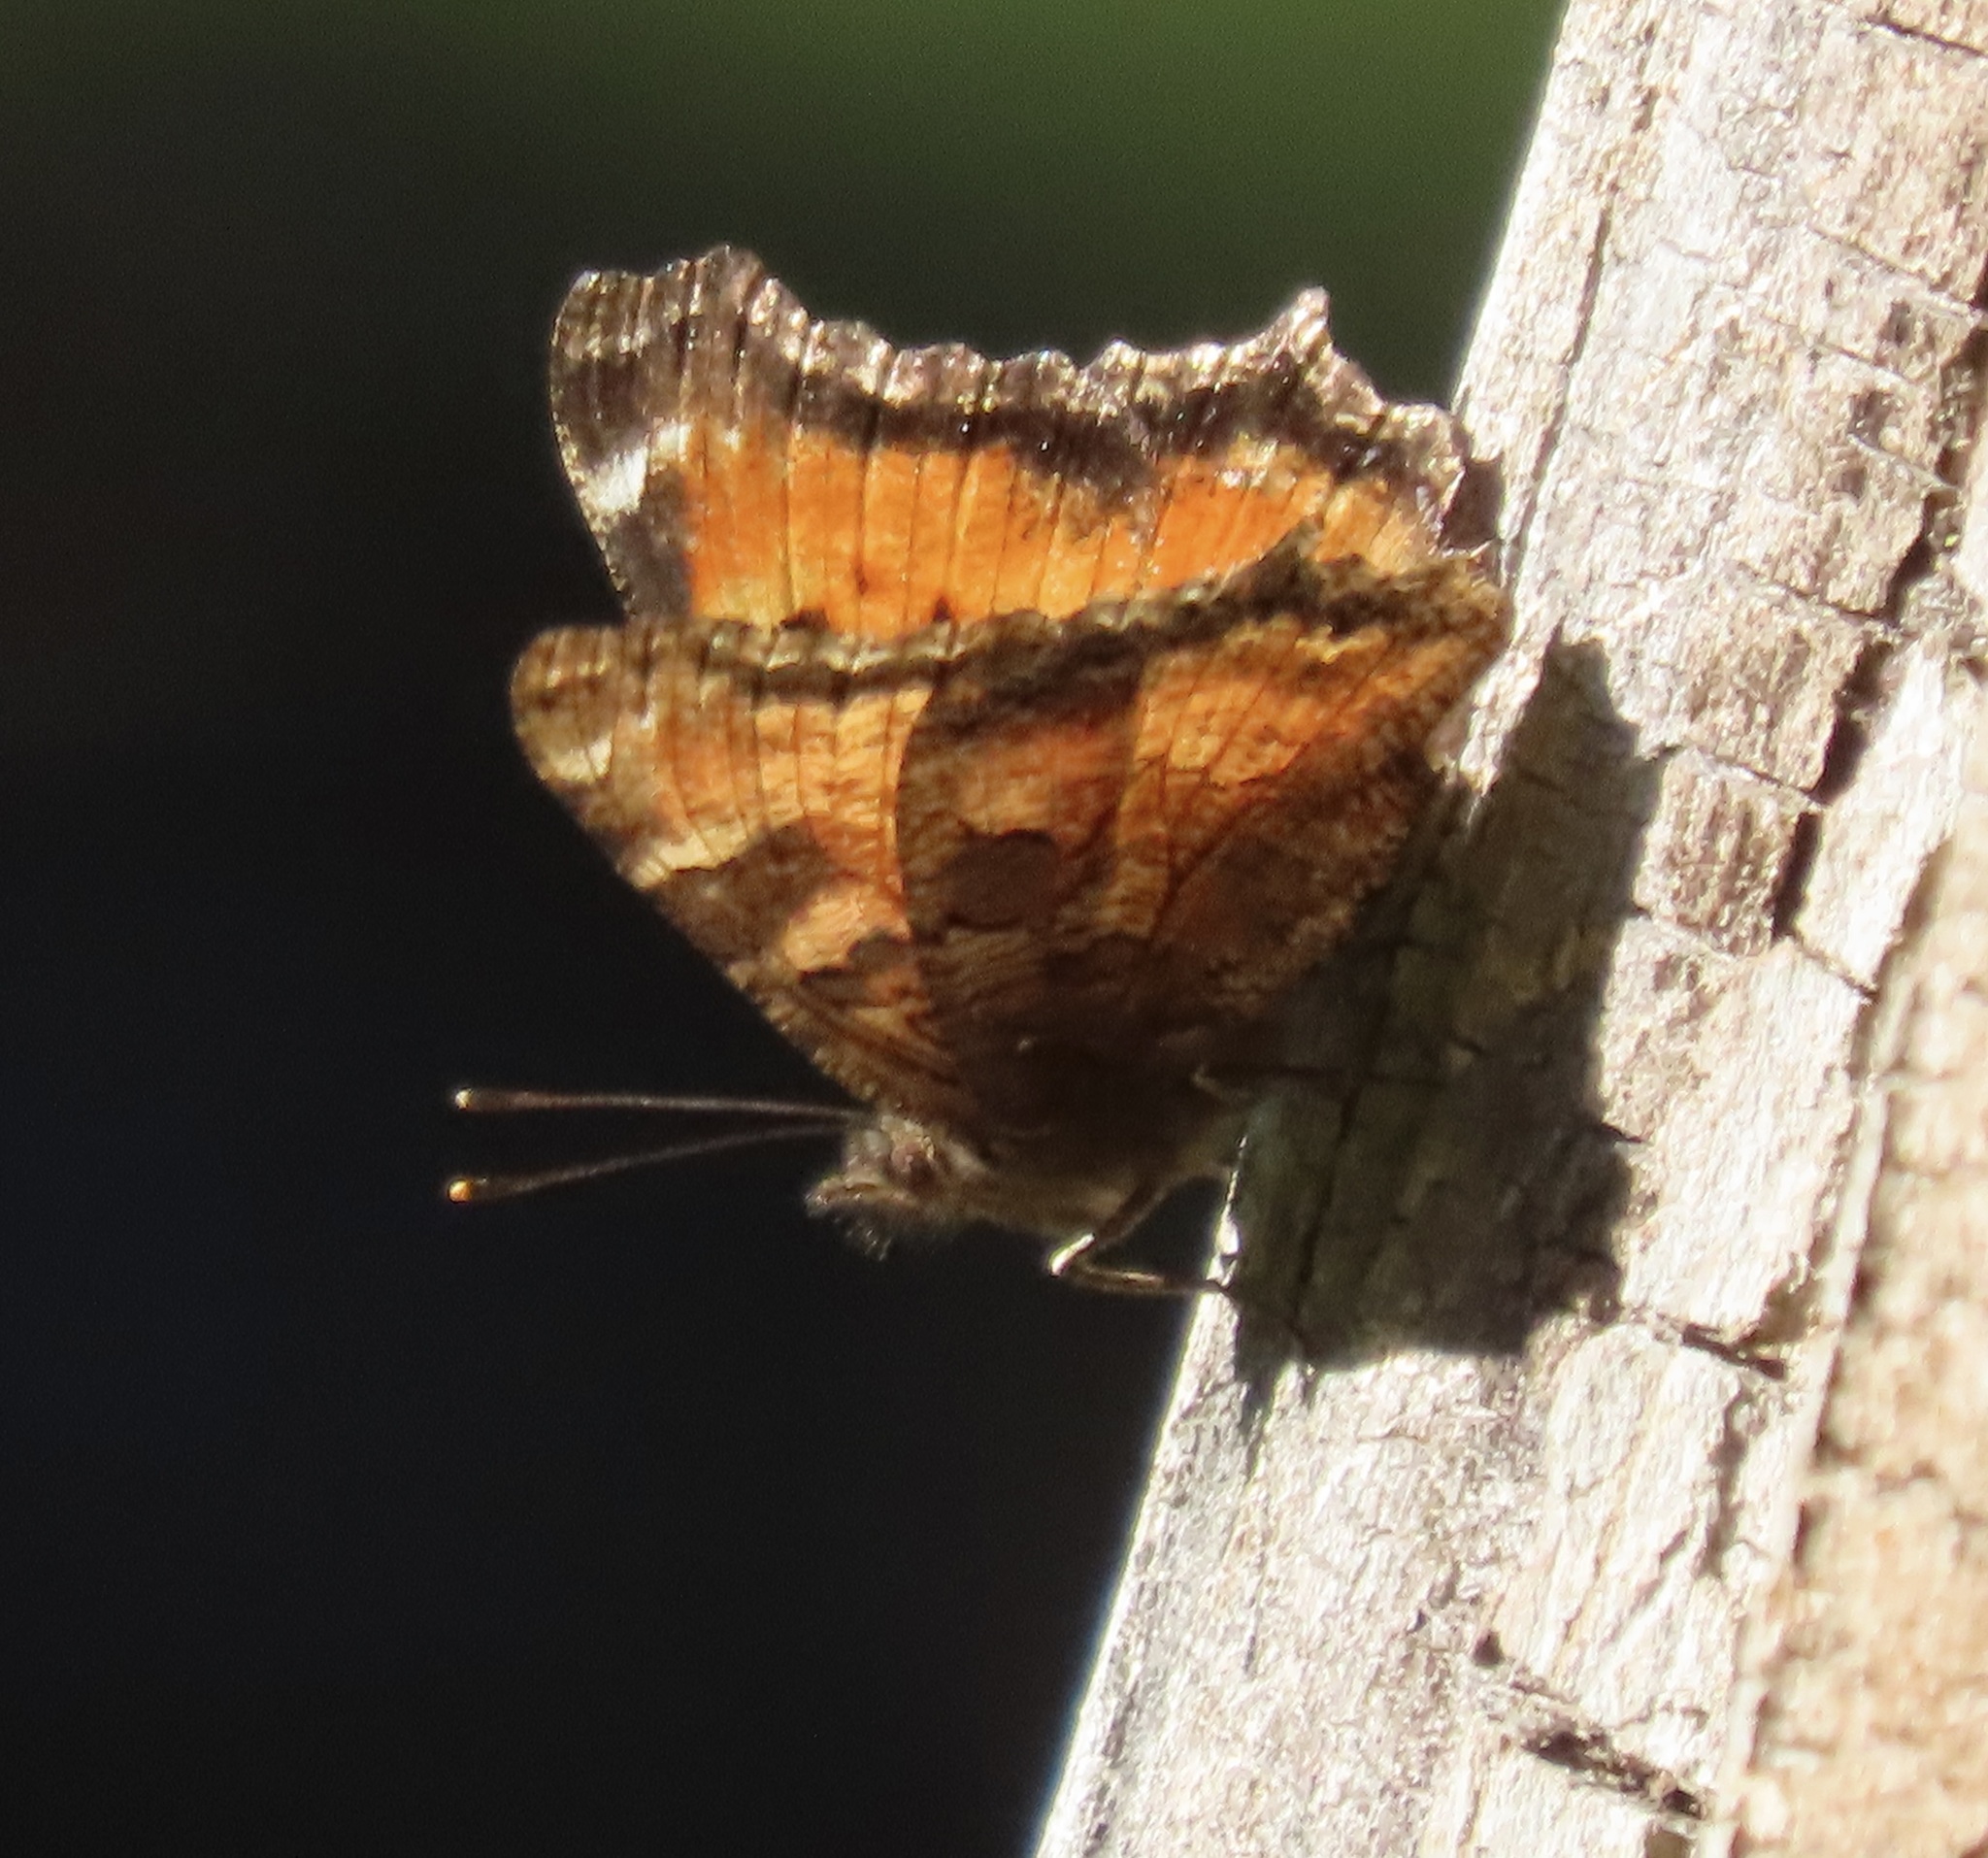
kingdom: Animalia
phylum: Arthropoda
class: Insecta
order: Lepidoptera
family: Nymphalidae
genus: Nymphalis
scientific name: Nymphalis californica
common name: California tortoiseshell
